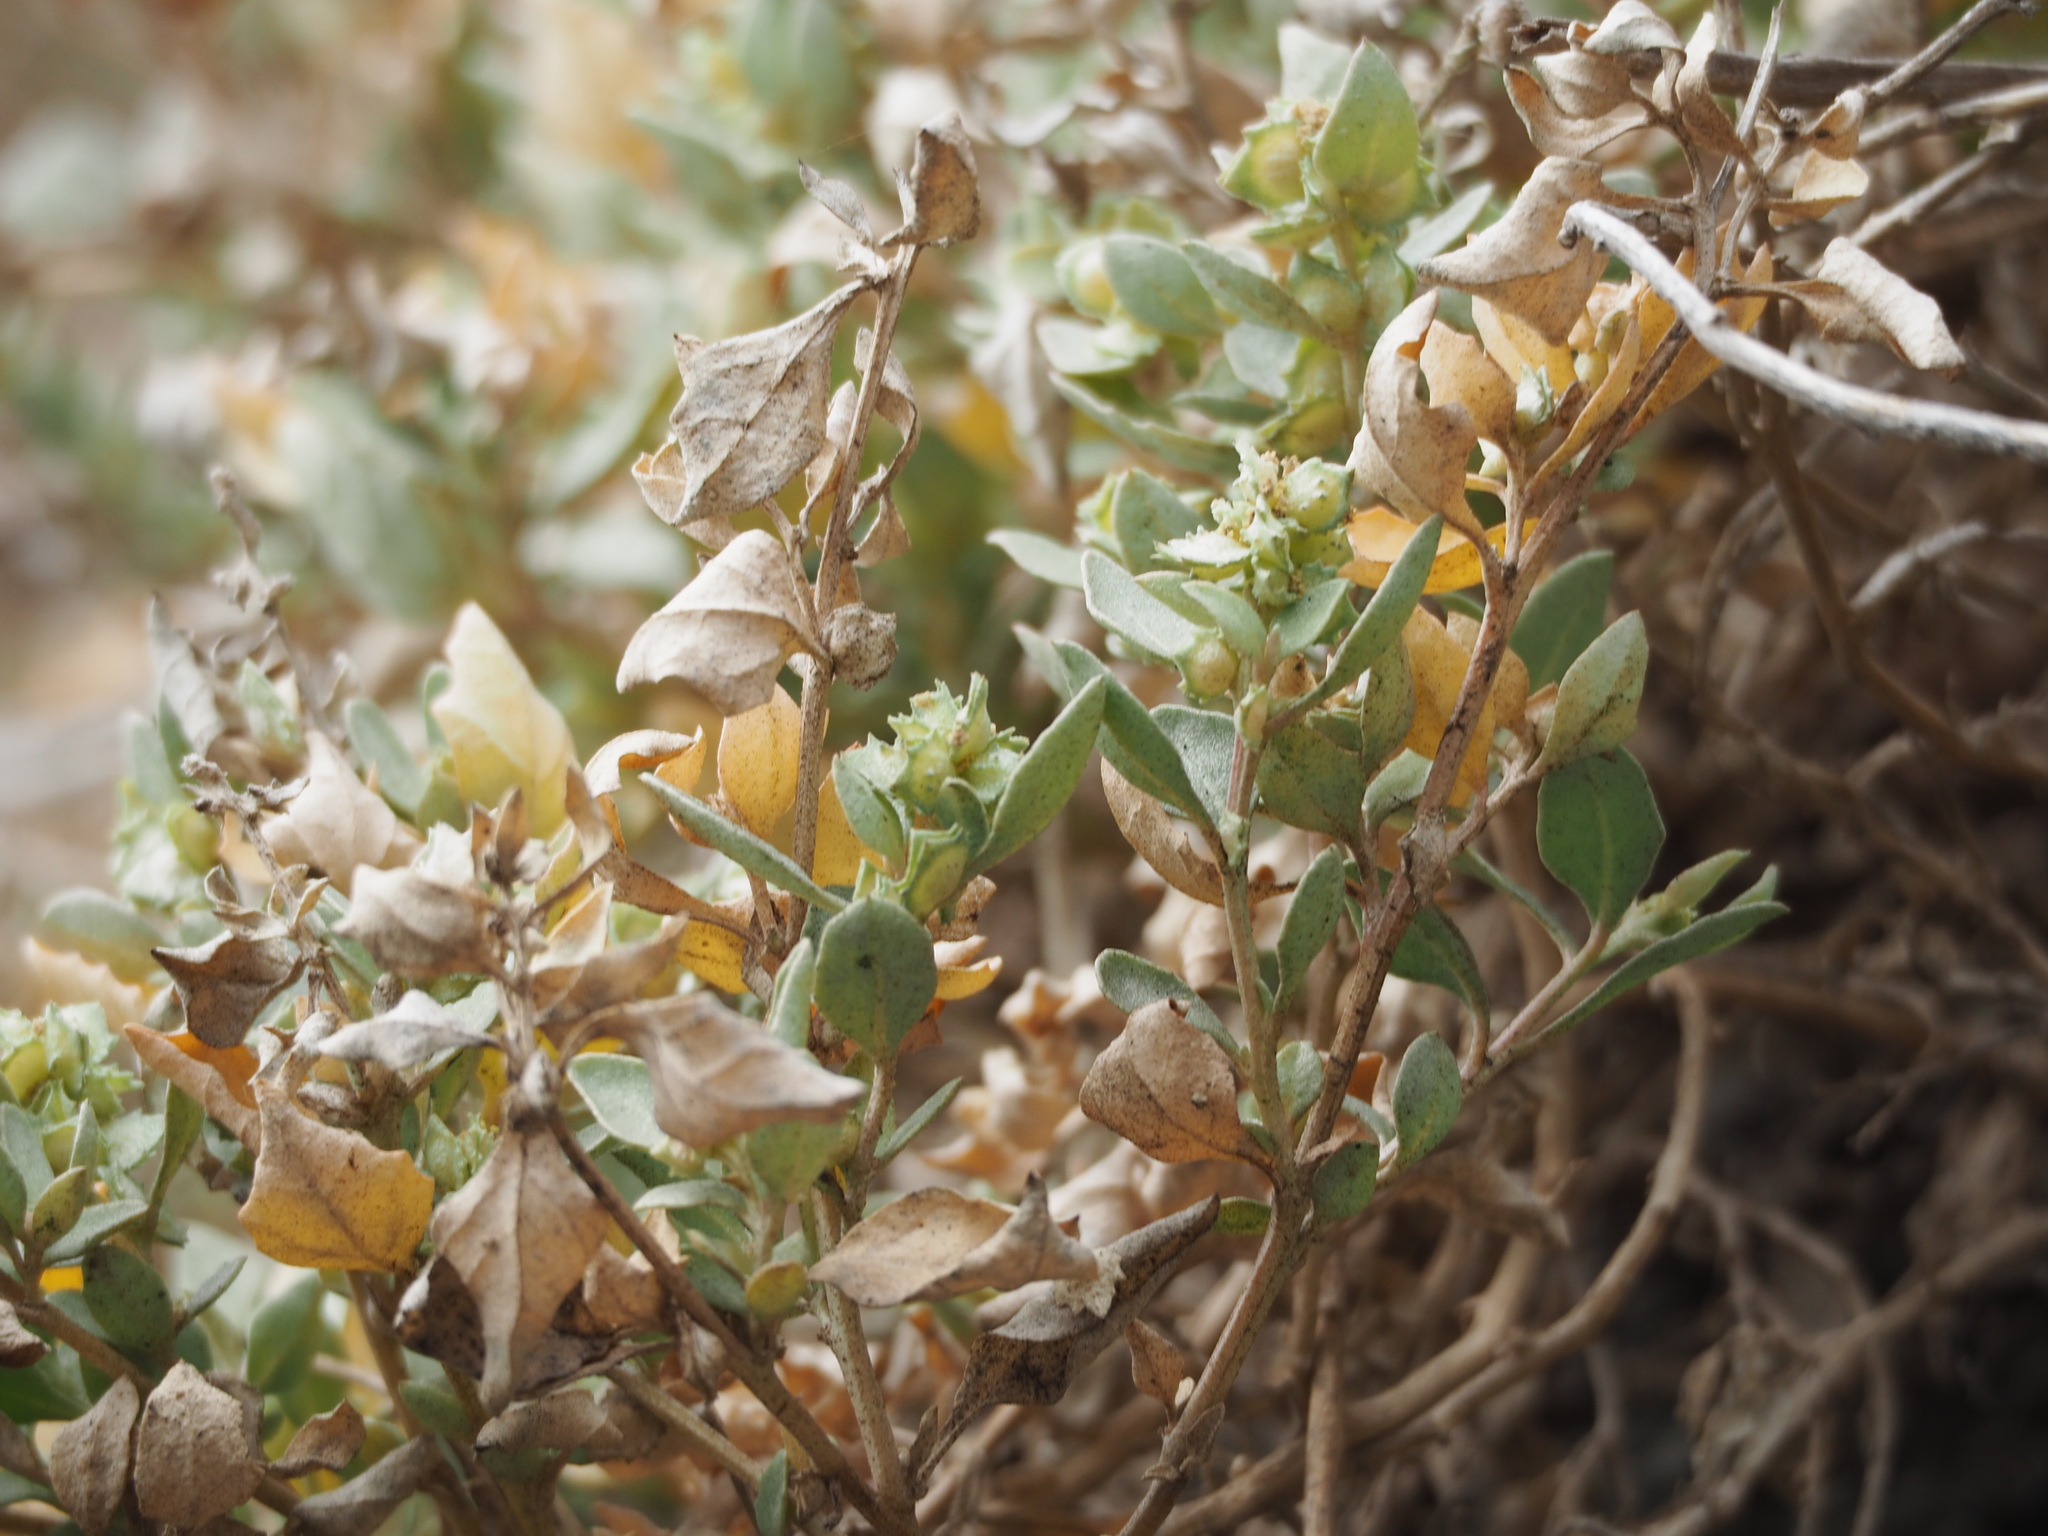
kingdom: Plantae
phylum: Tracheophyta
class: Magnoliopsida
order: Caryophyllales
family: Amaranthaceae
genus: Atriplex
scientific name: Atriplex maximowicziana
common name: Maximowicz's saltbush
